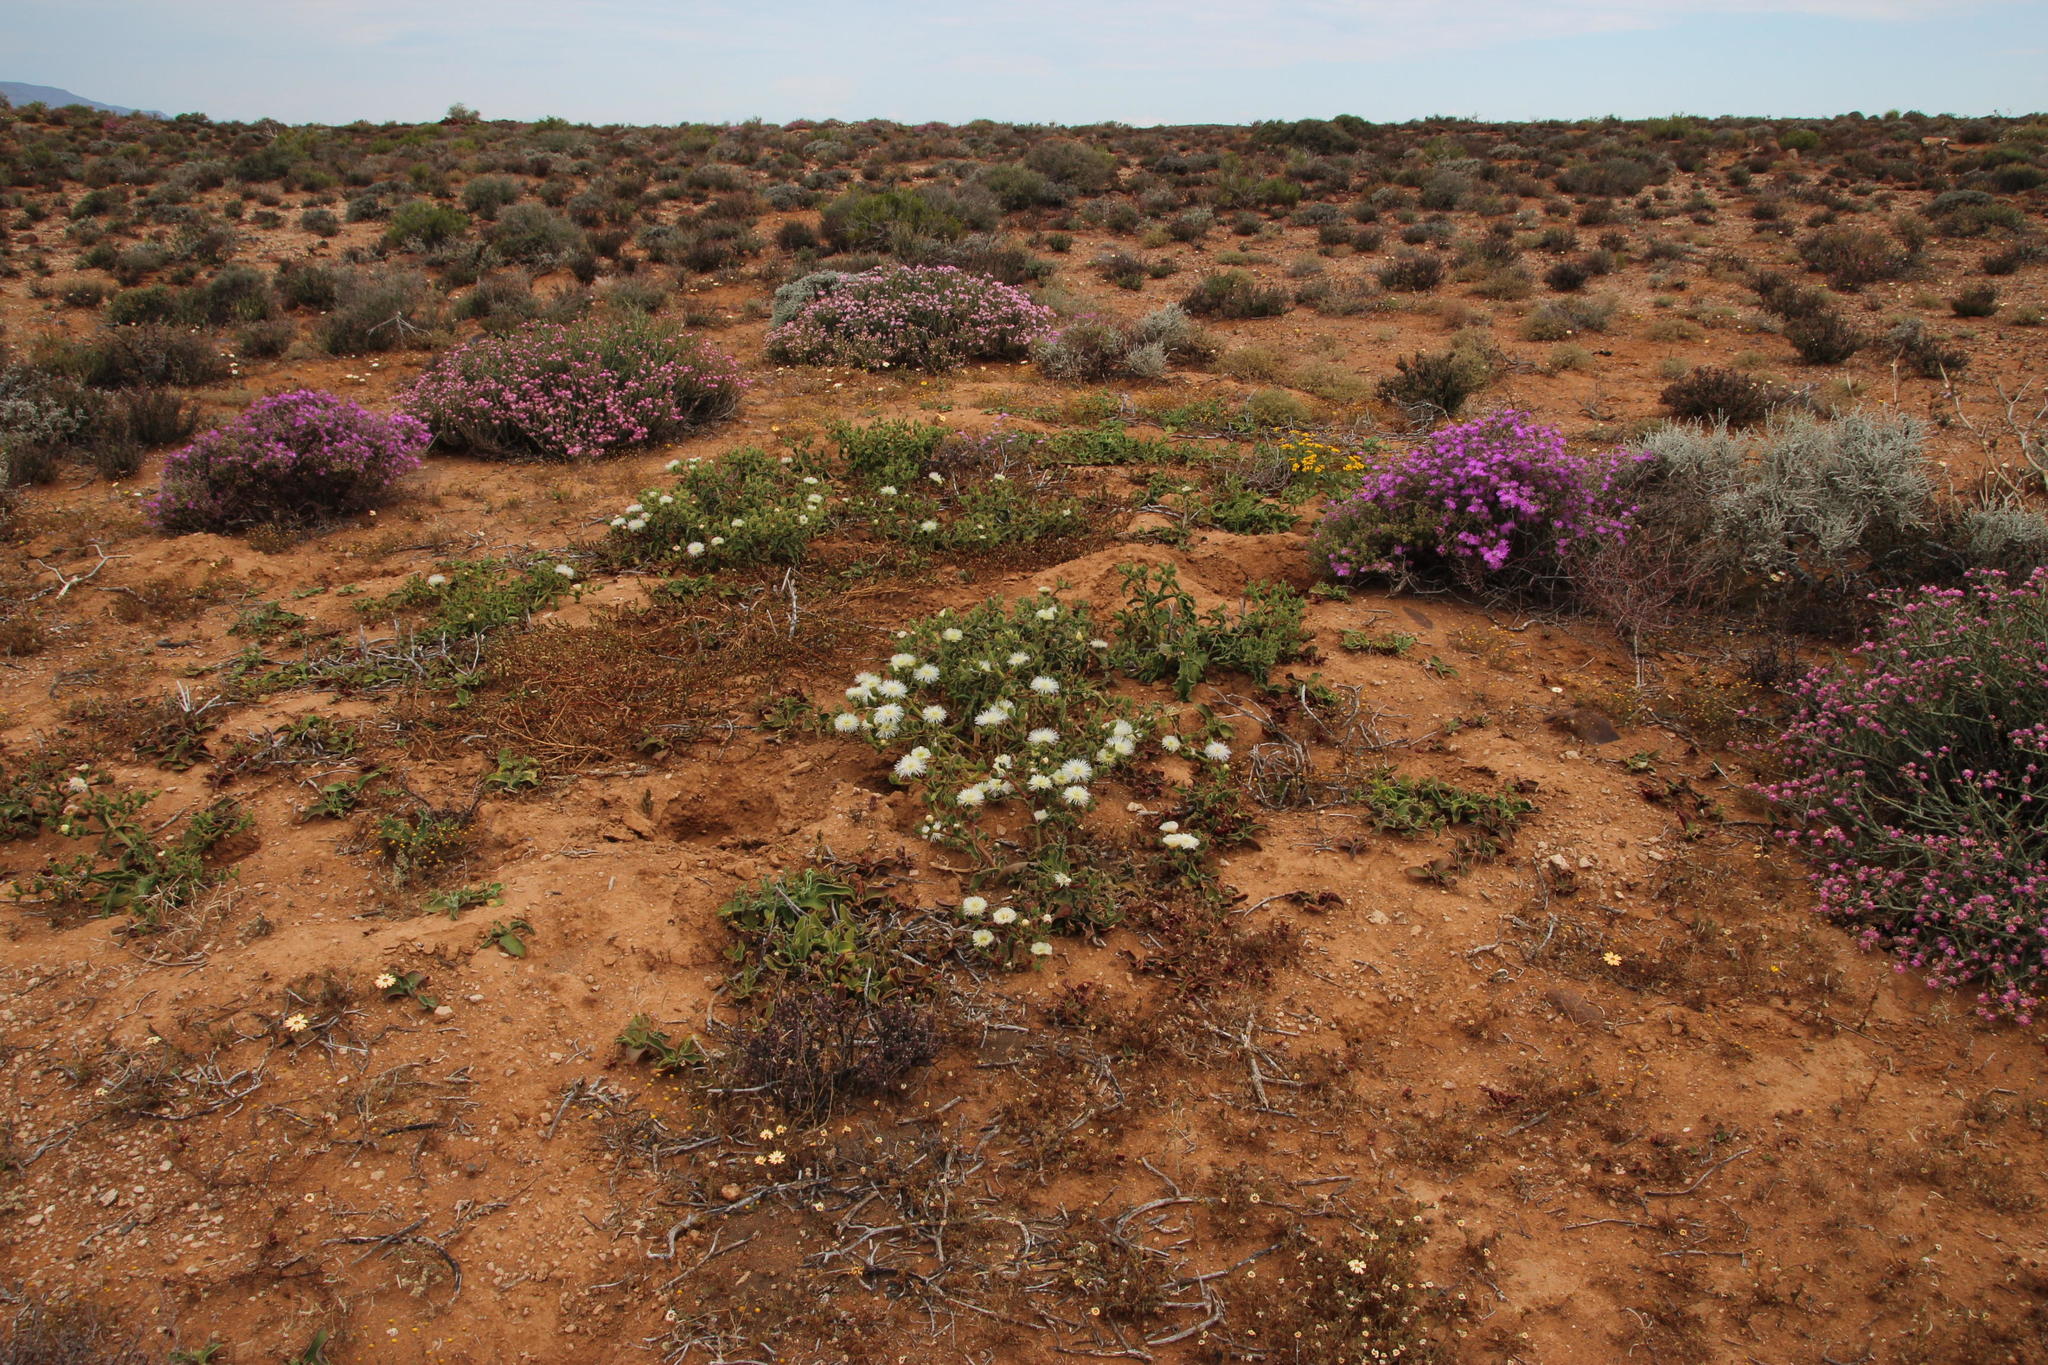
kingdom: Plantae
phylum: Tracheophyta
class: Magnoliopsida
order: Caryophyllales
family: Aizoaceae
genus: Mesembryanthemum
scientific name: Mesembryanthemum guerichianum
